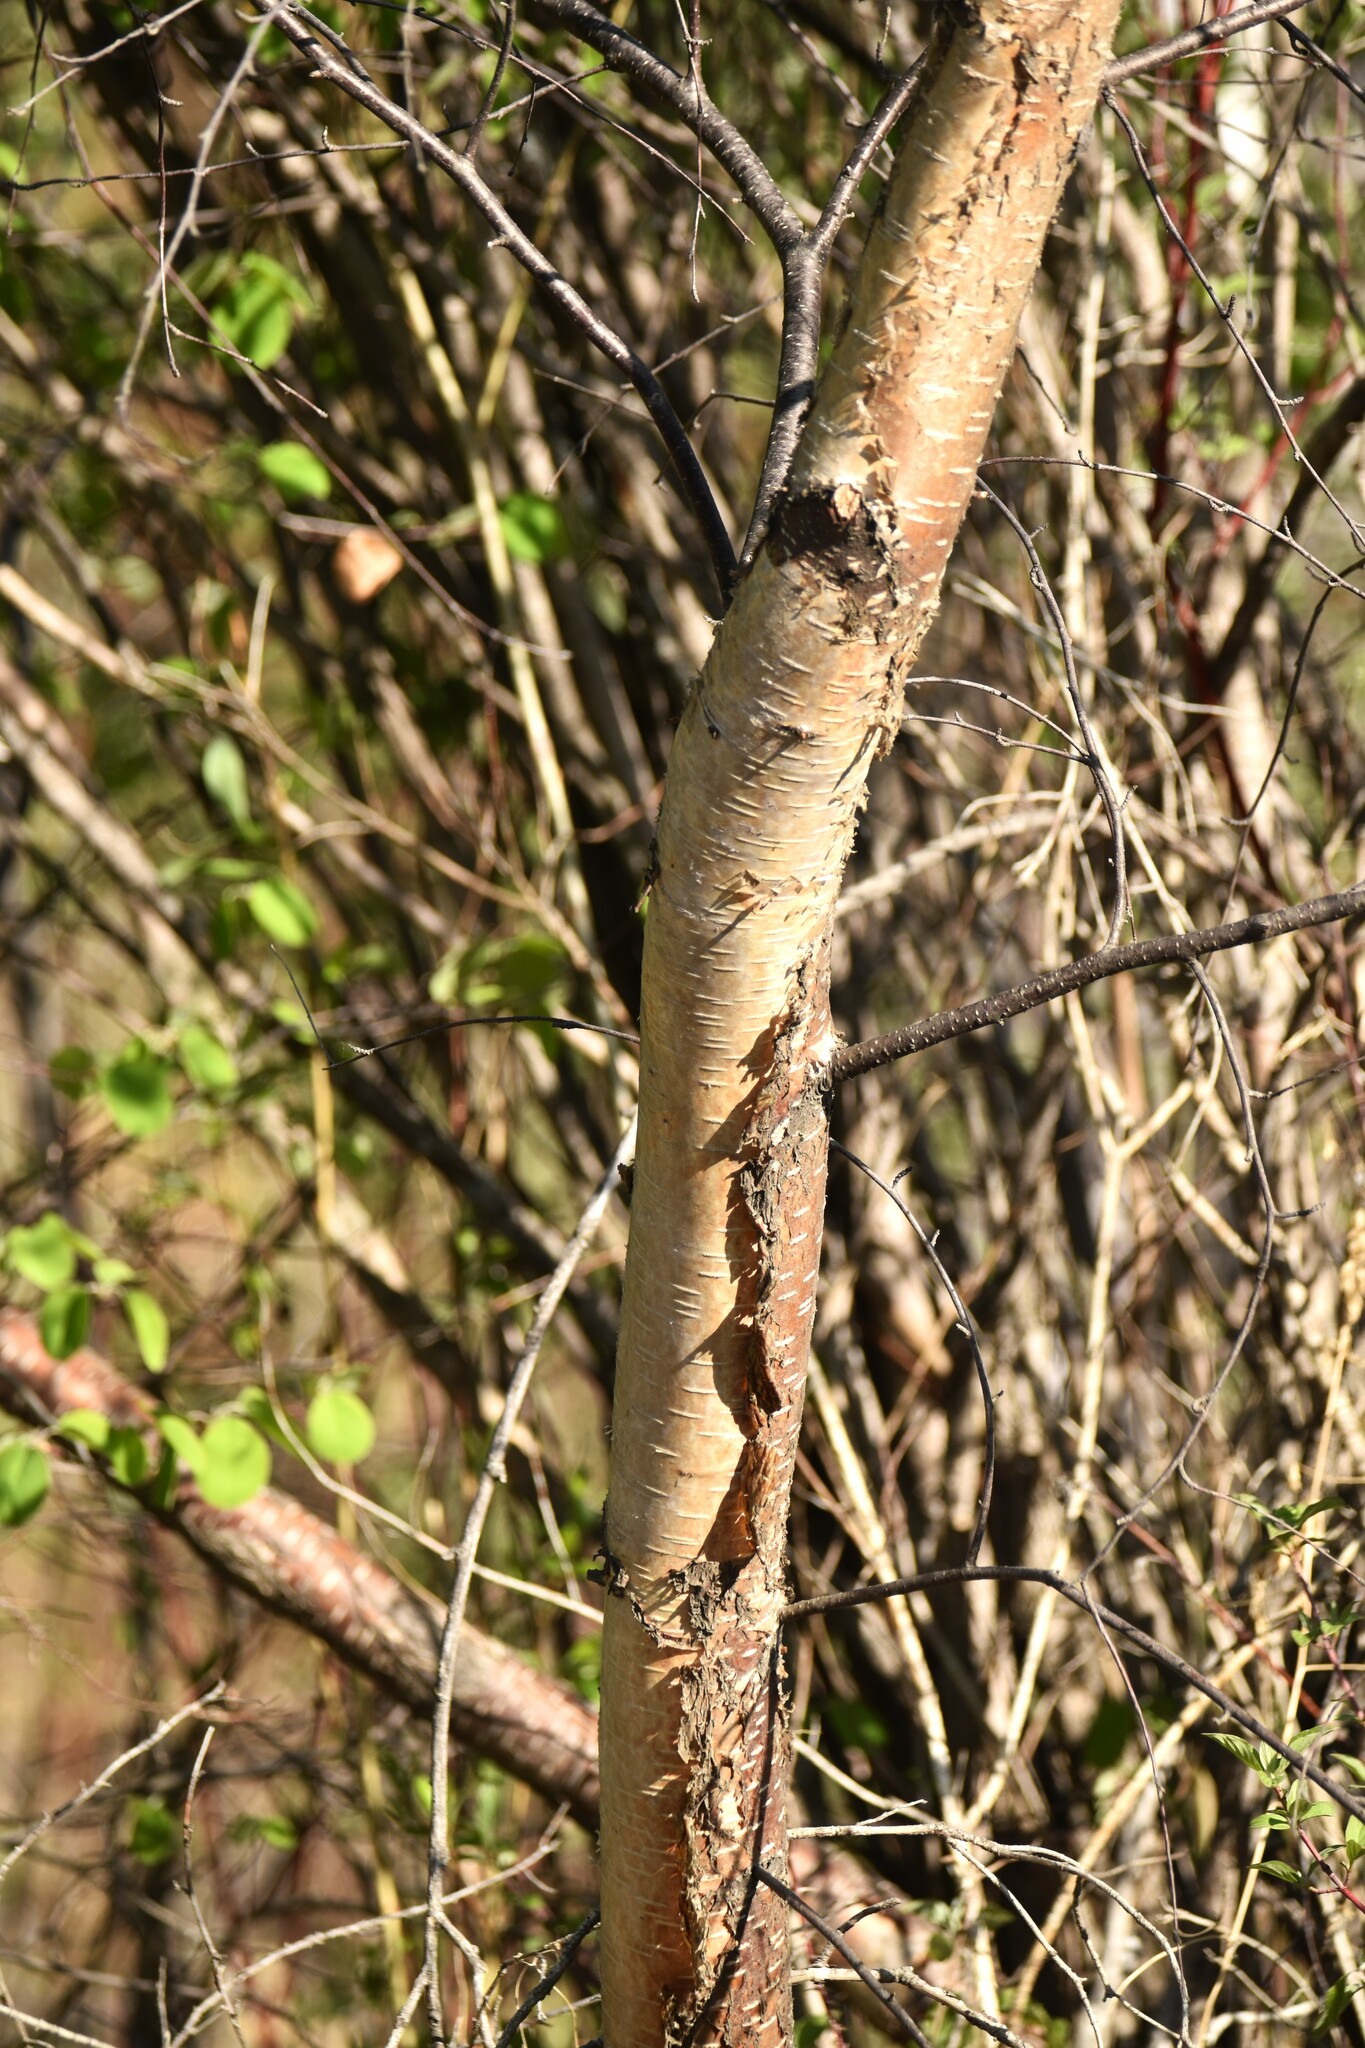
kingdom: Plantae
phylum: Tracheophyta
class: Magnoliopsida
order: Fagales
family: Betulaceae
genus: Betula
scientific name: Betula papyrifera
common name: Paper birch
